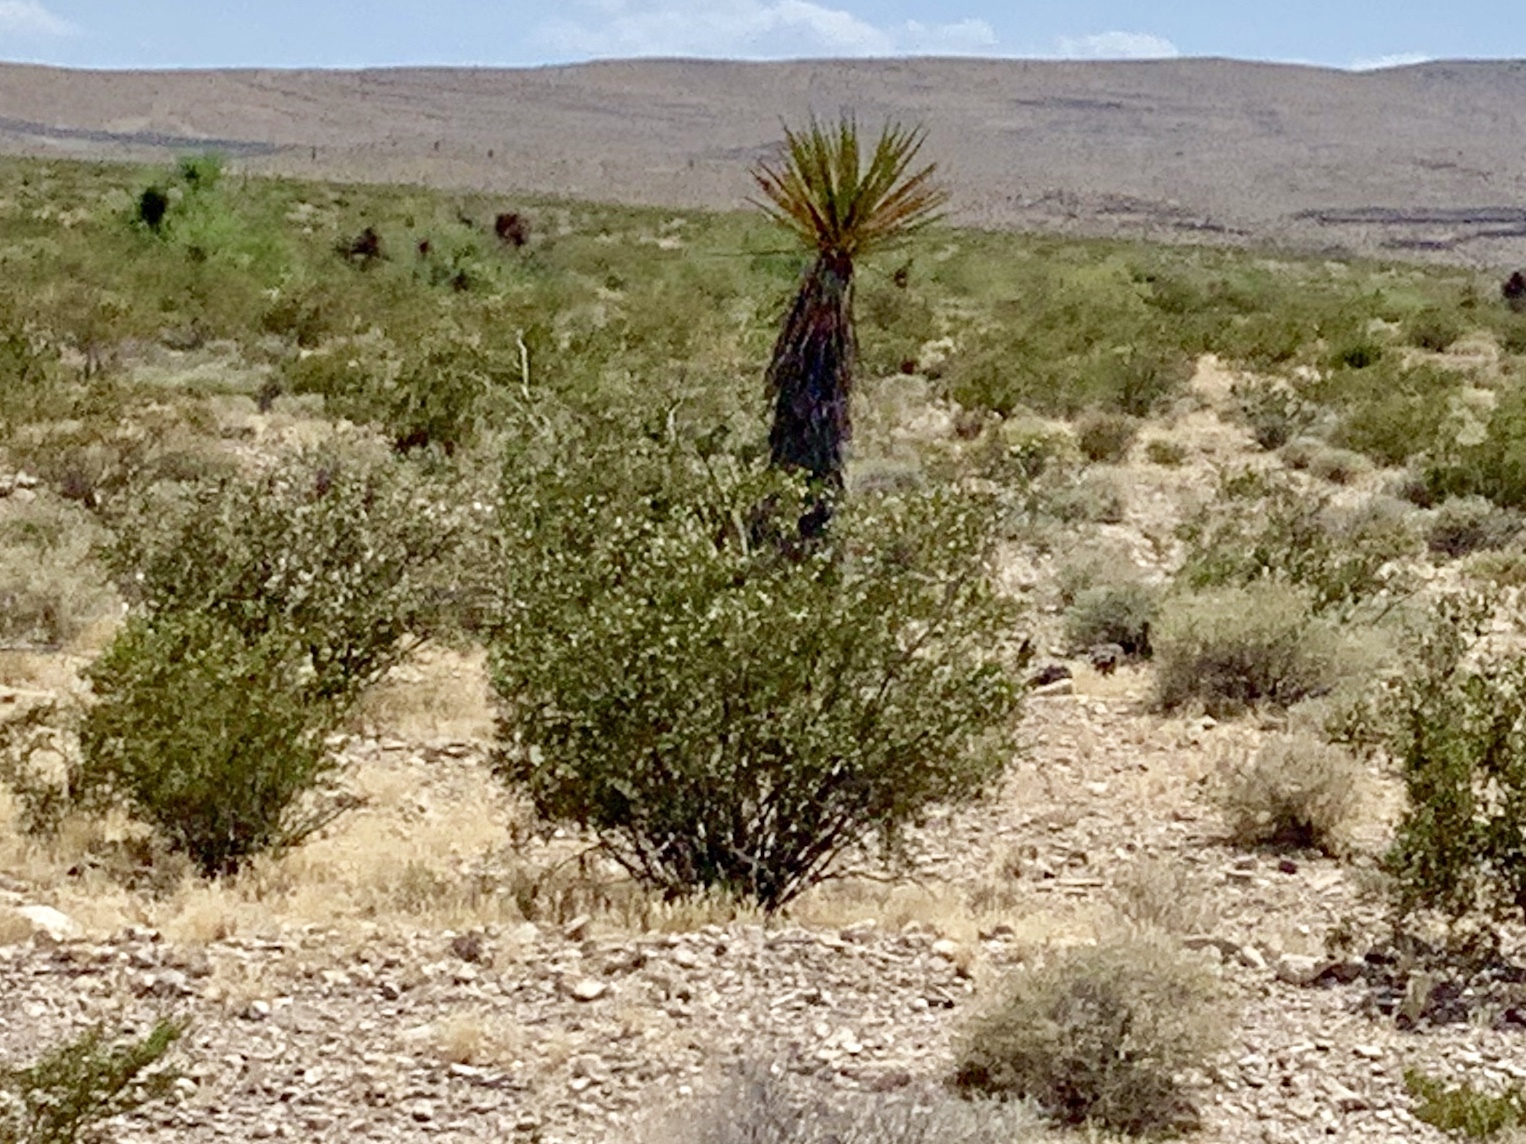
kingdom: Plantae
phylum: Tracheophyta
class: Magnoliopsida
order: Zygophyllales
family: Zygophyllaceae
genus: Larrea
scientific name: Larrea tridentata
